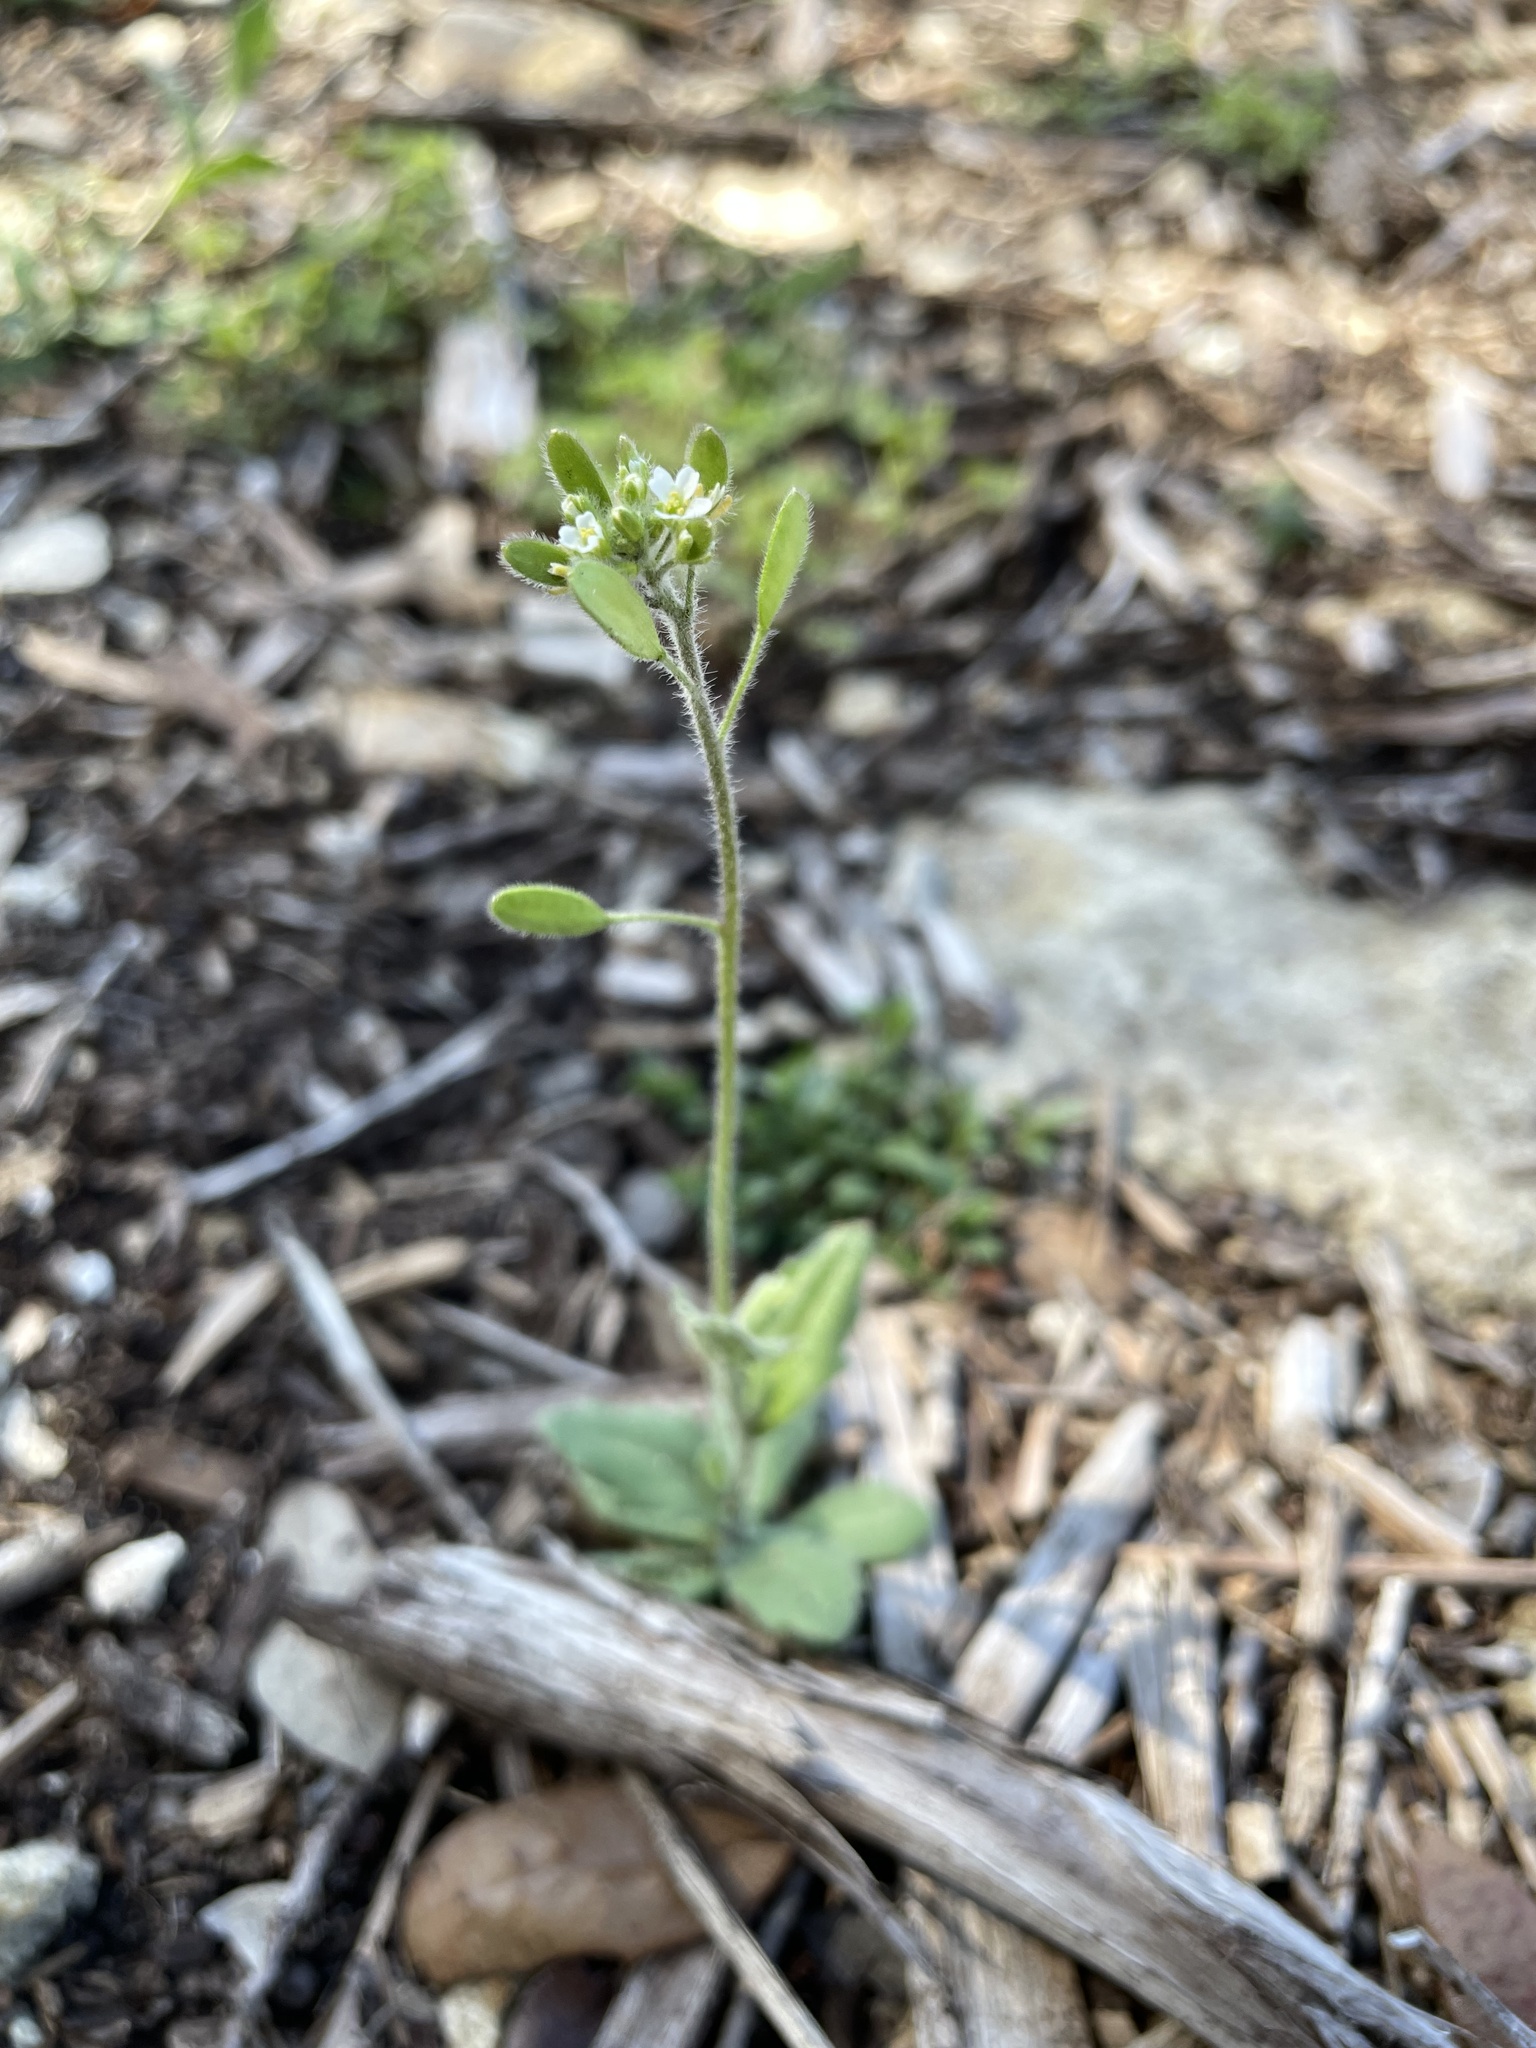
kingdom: Plantae
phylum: Tracheophyta
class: Magnoliopsida
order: Brassicales
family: Brassicaceae
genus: Tomostima
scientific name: Tomostima platycarpa
